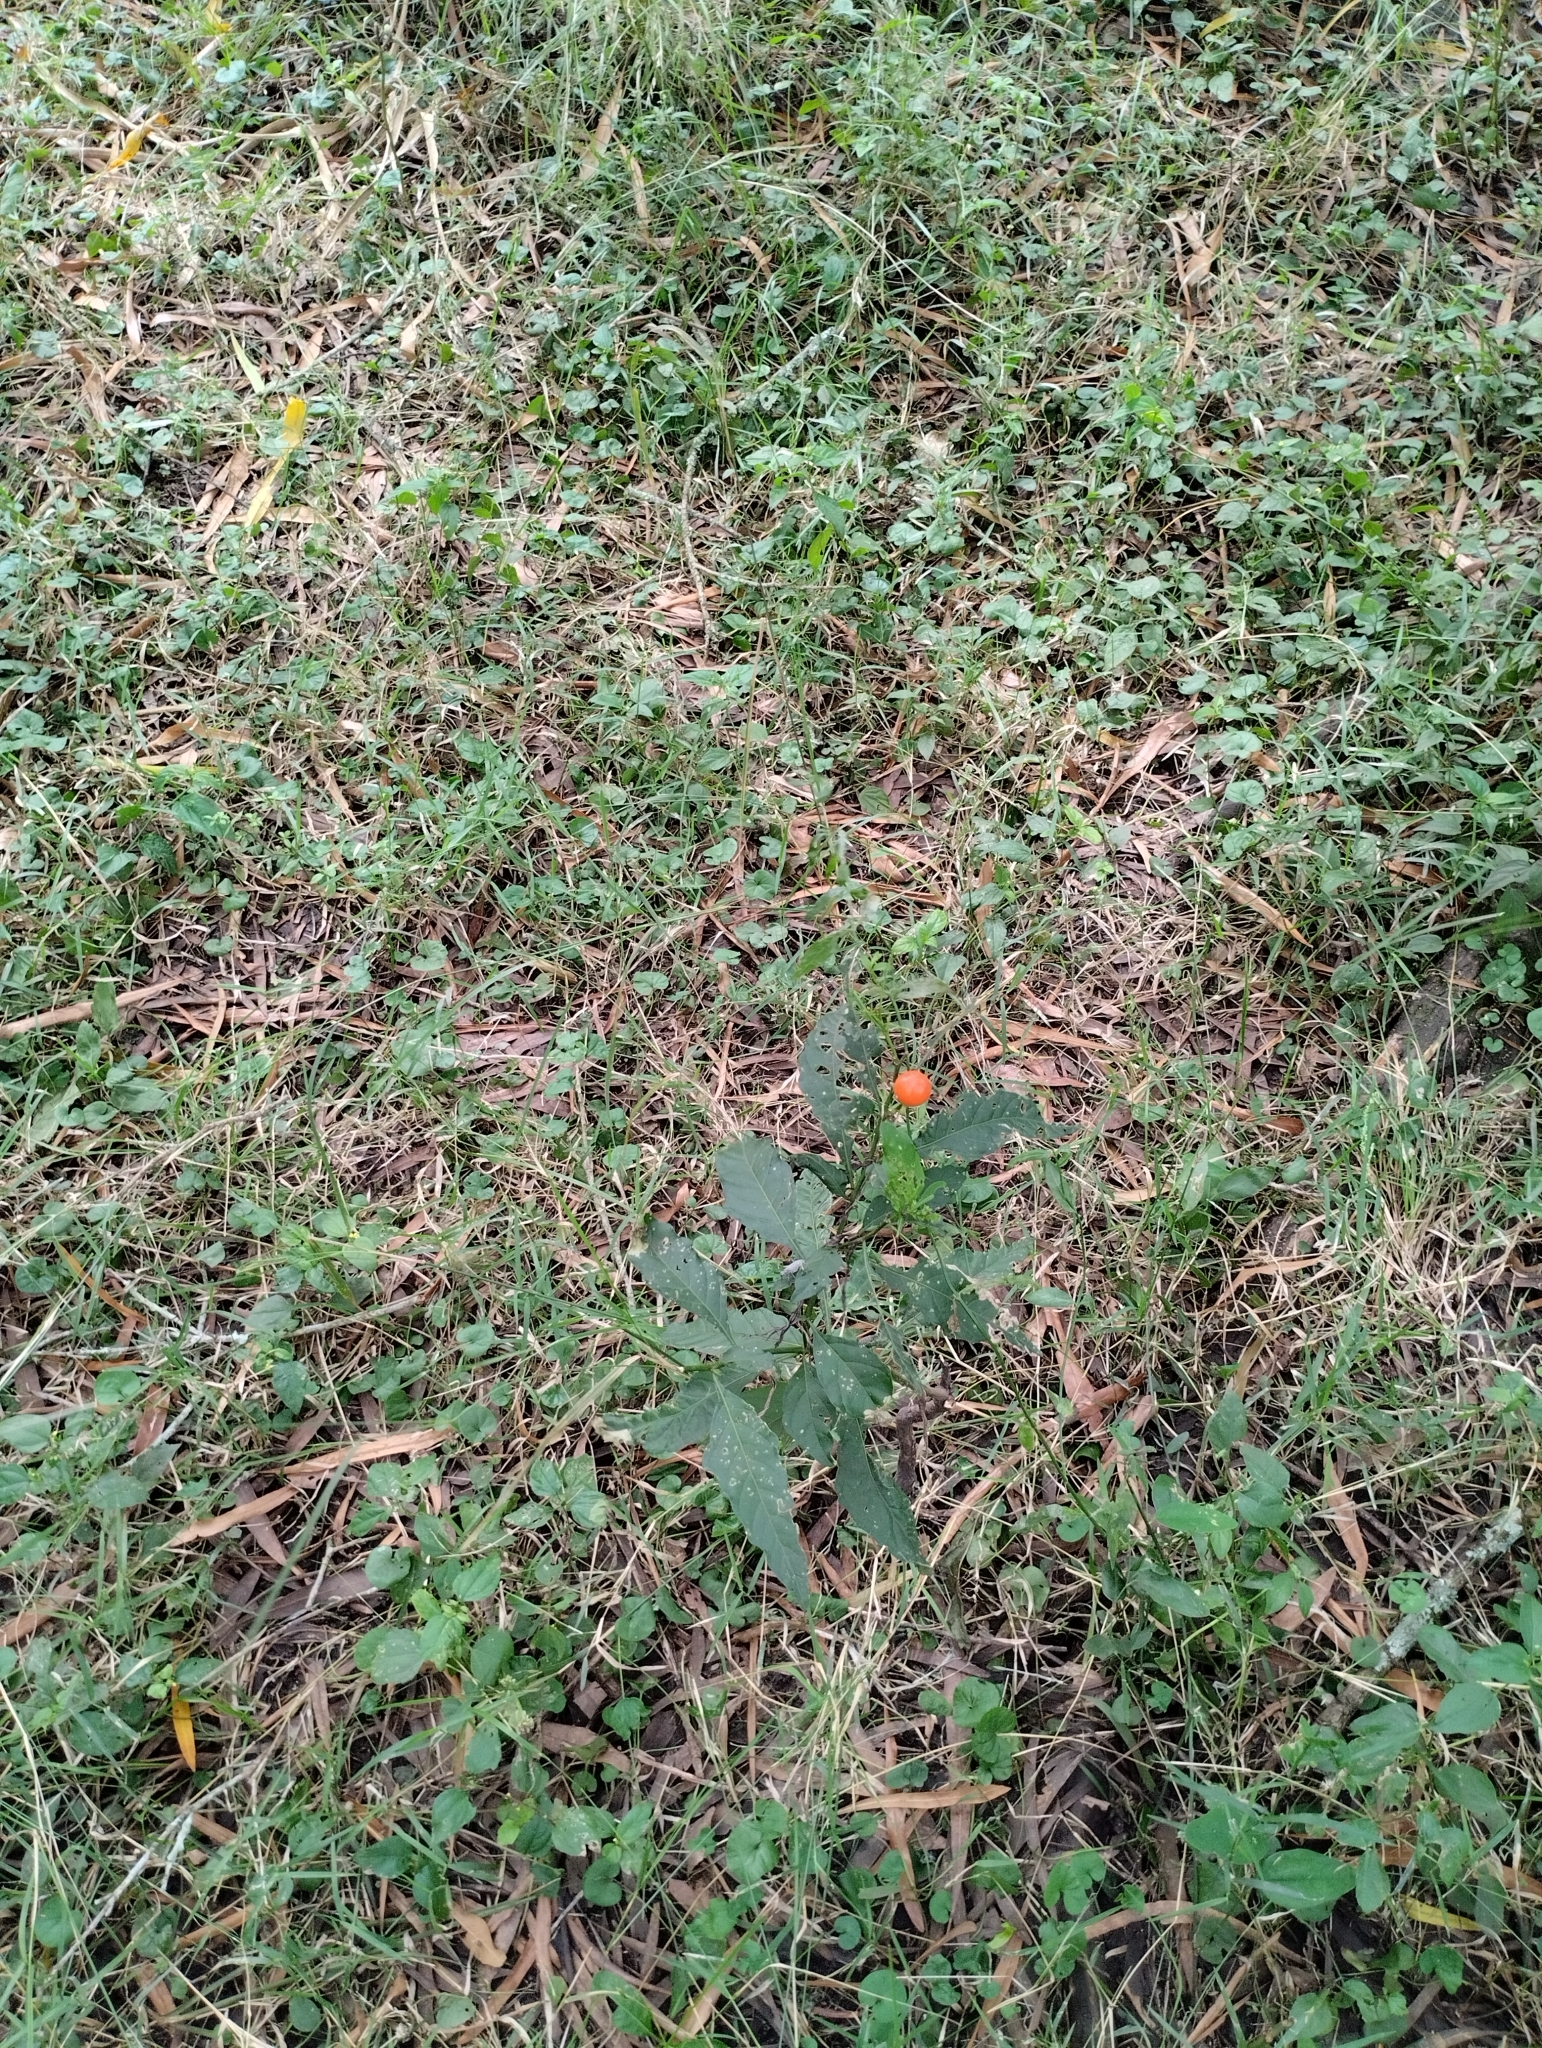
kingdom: Plantae
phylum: Tracheophyta
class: Magnoliopsida
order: Solanales
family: Solanaceae
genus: Solanum
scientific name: Solanum pseudocapsicum
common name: Jerusalem cherry
